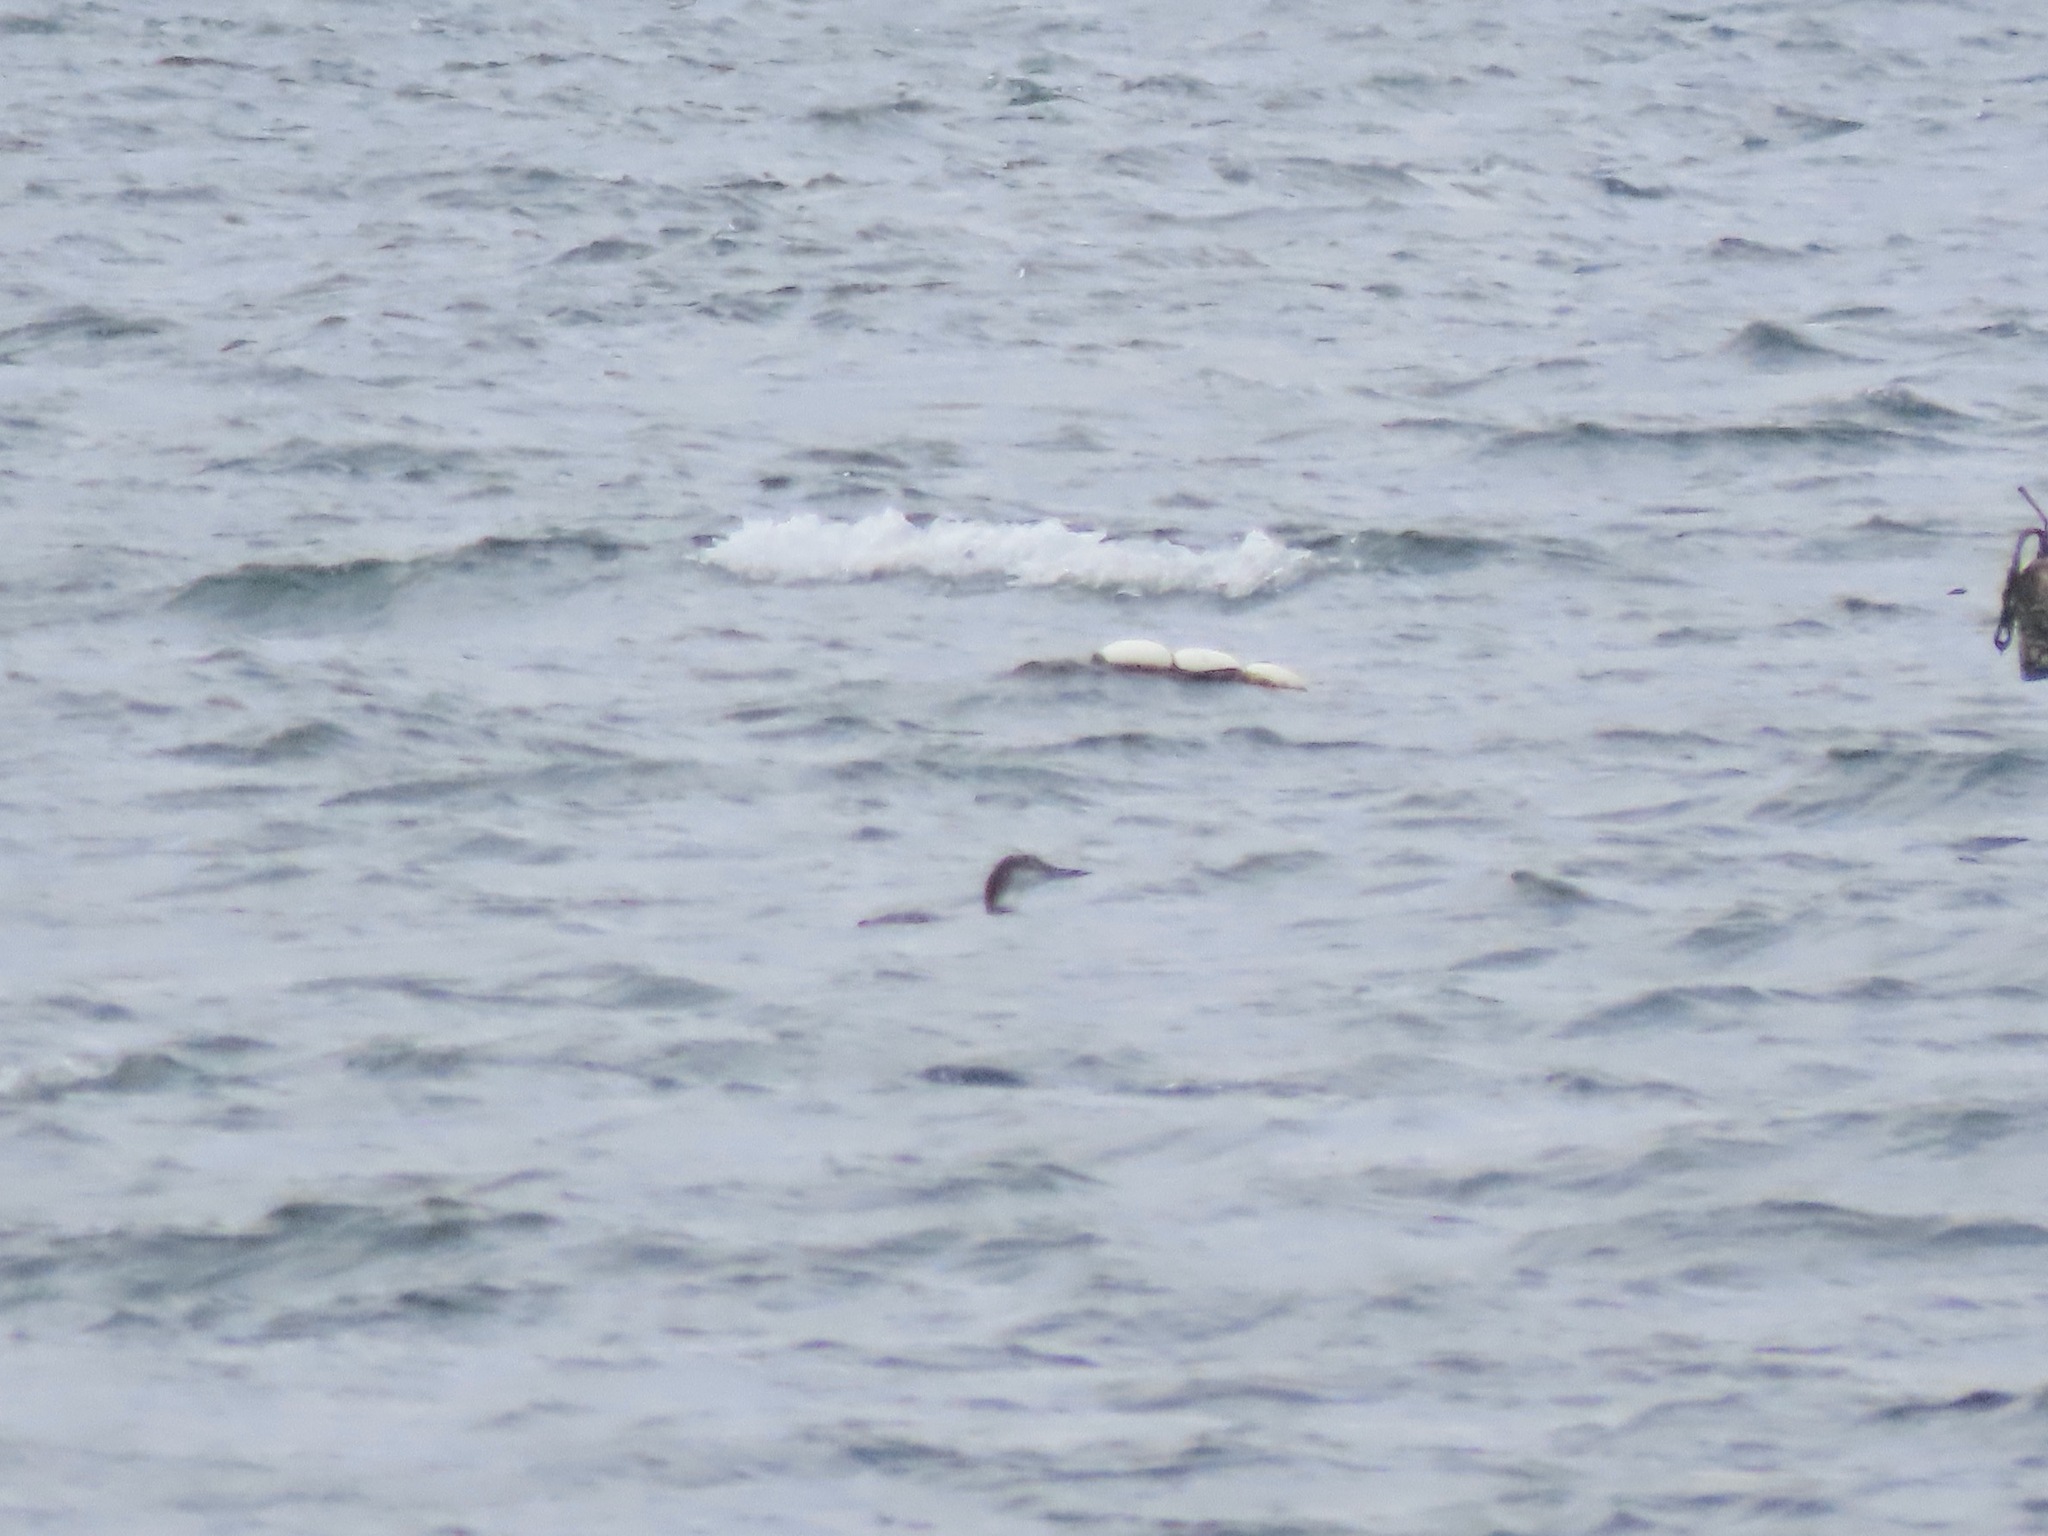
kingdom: Animalia
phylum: Chordata
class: Aves
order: Gaviiformes
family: Gaviidae
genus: Gavia
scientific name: Gavia immer
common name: Common loon
